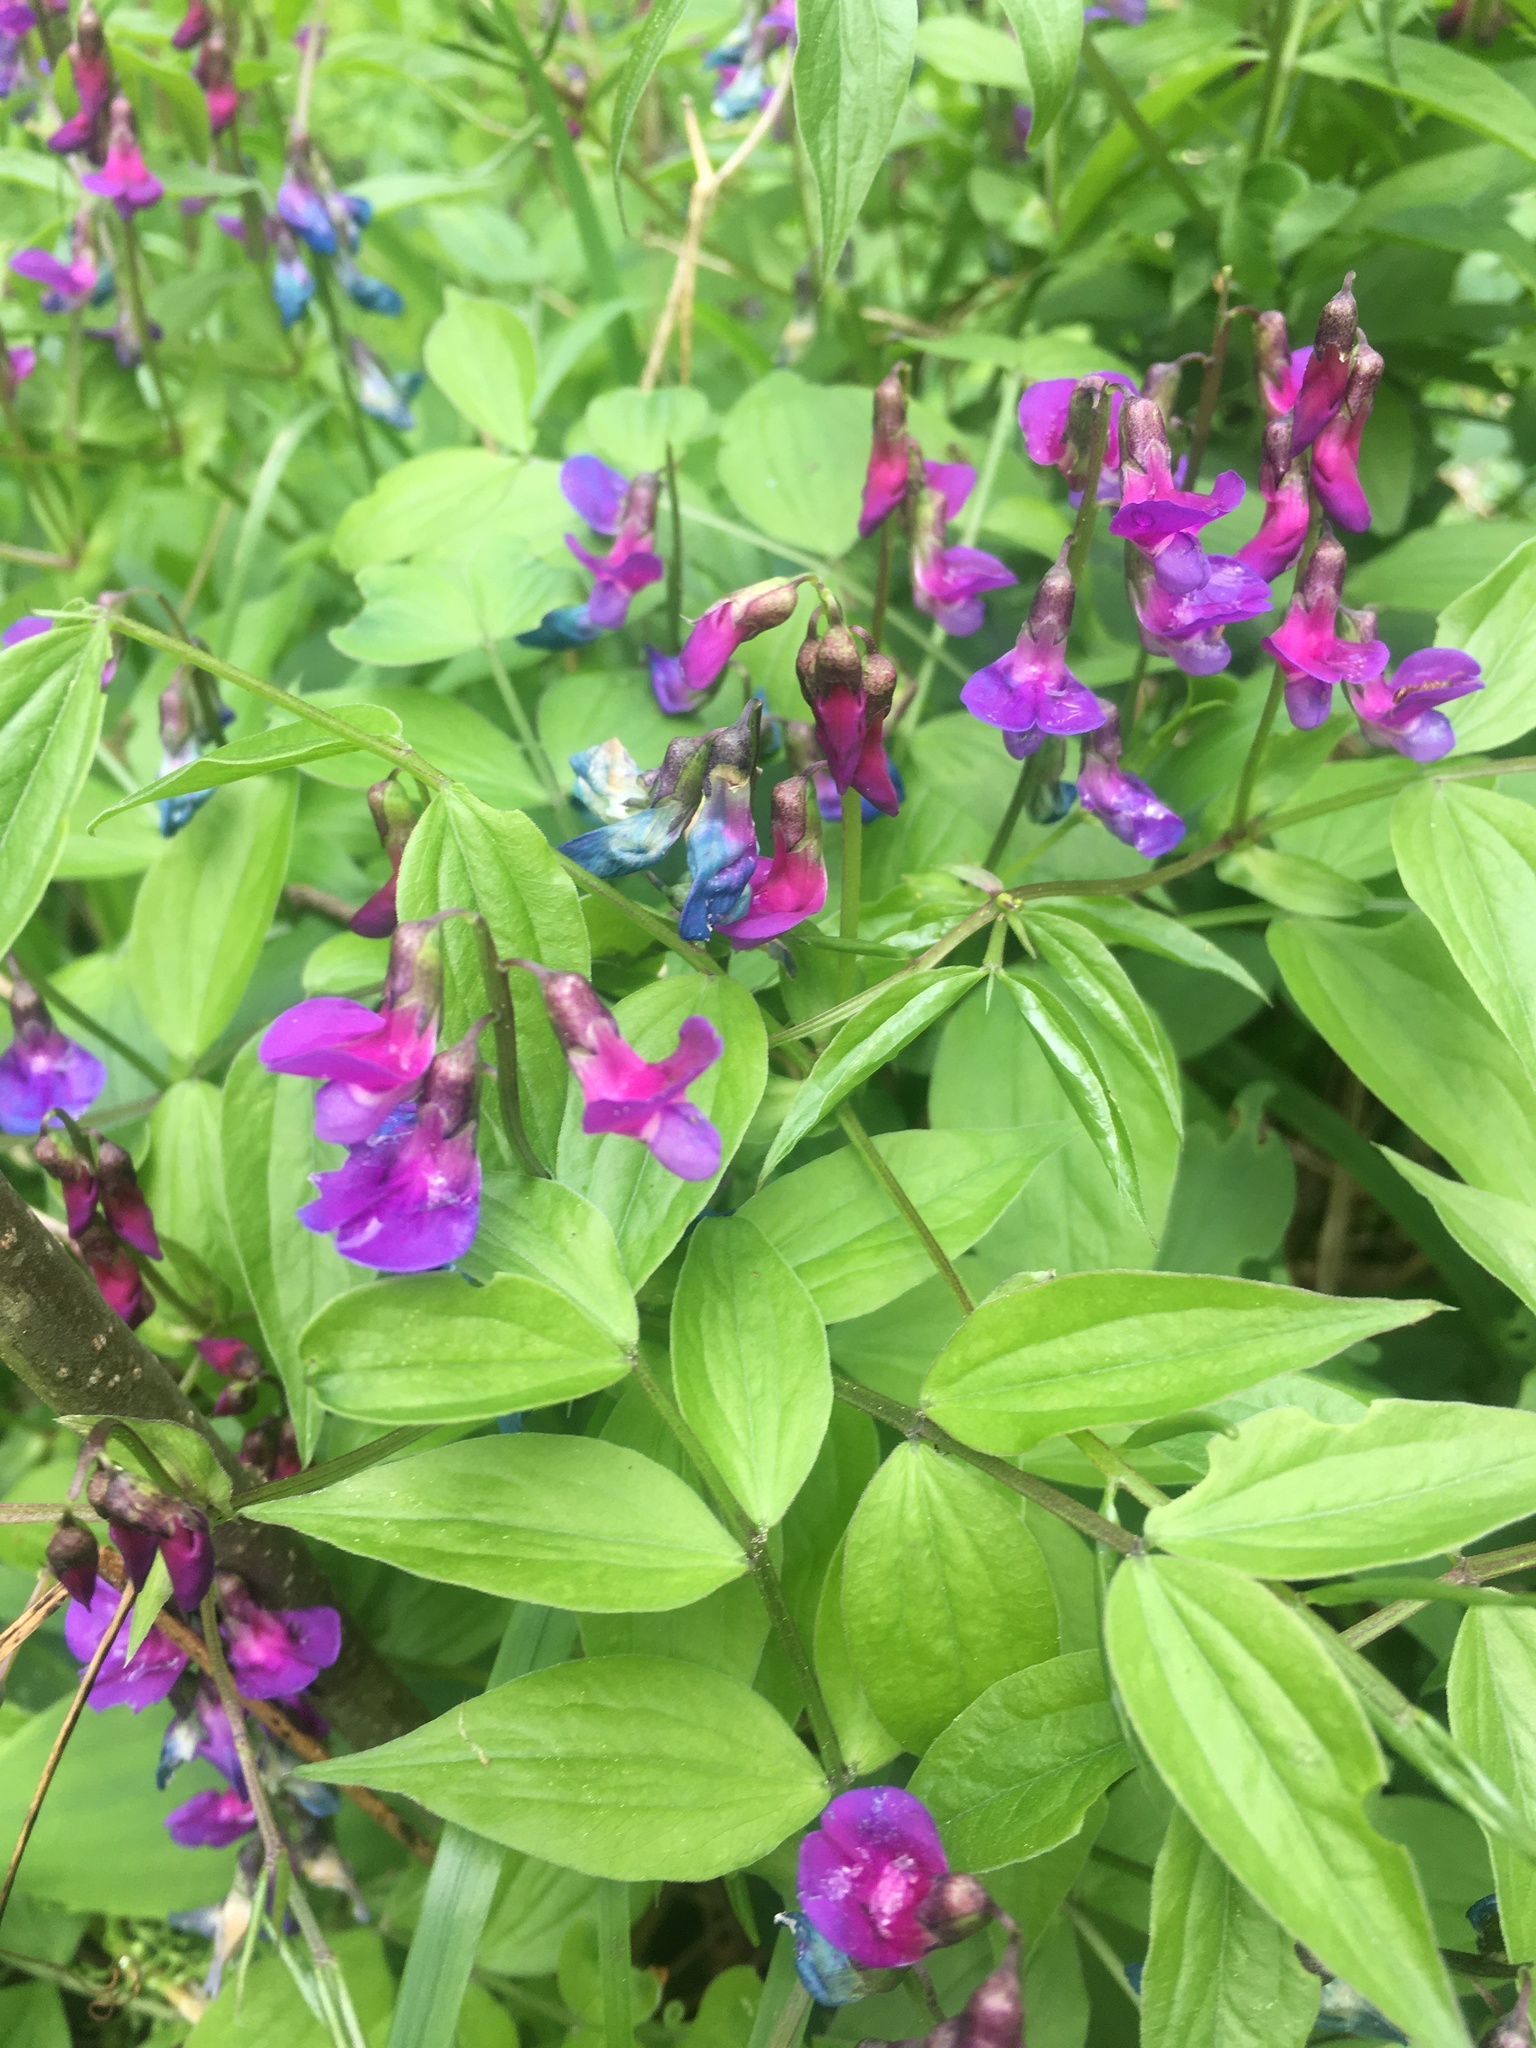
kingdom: Plantae
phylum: Tracheophyta
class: Magnoliopsida
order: Fabales
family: Fabaceae
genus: Lathyrus
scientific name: Lathyrus vernus
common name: Spring pea
